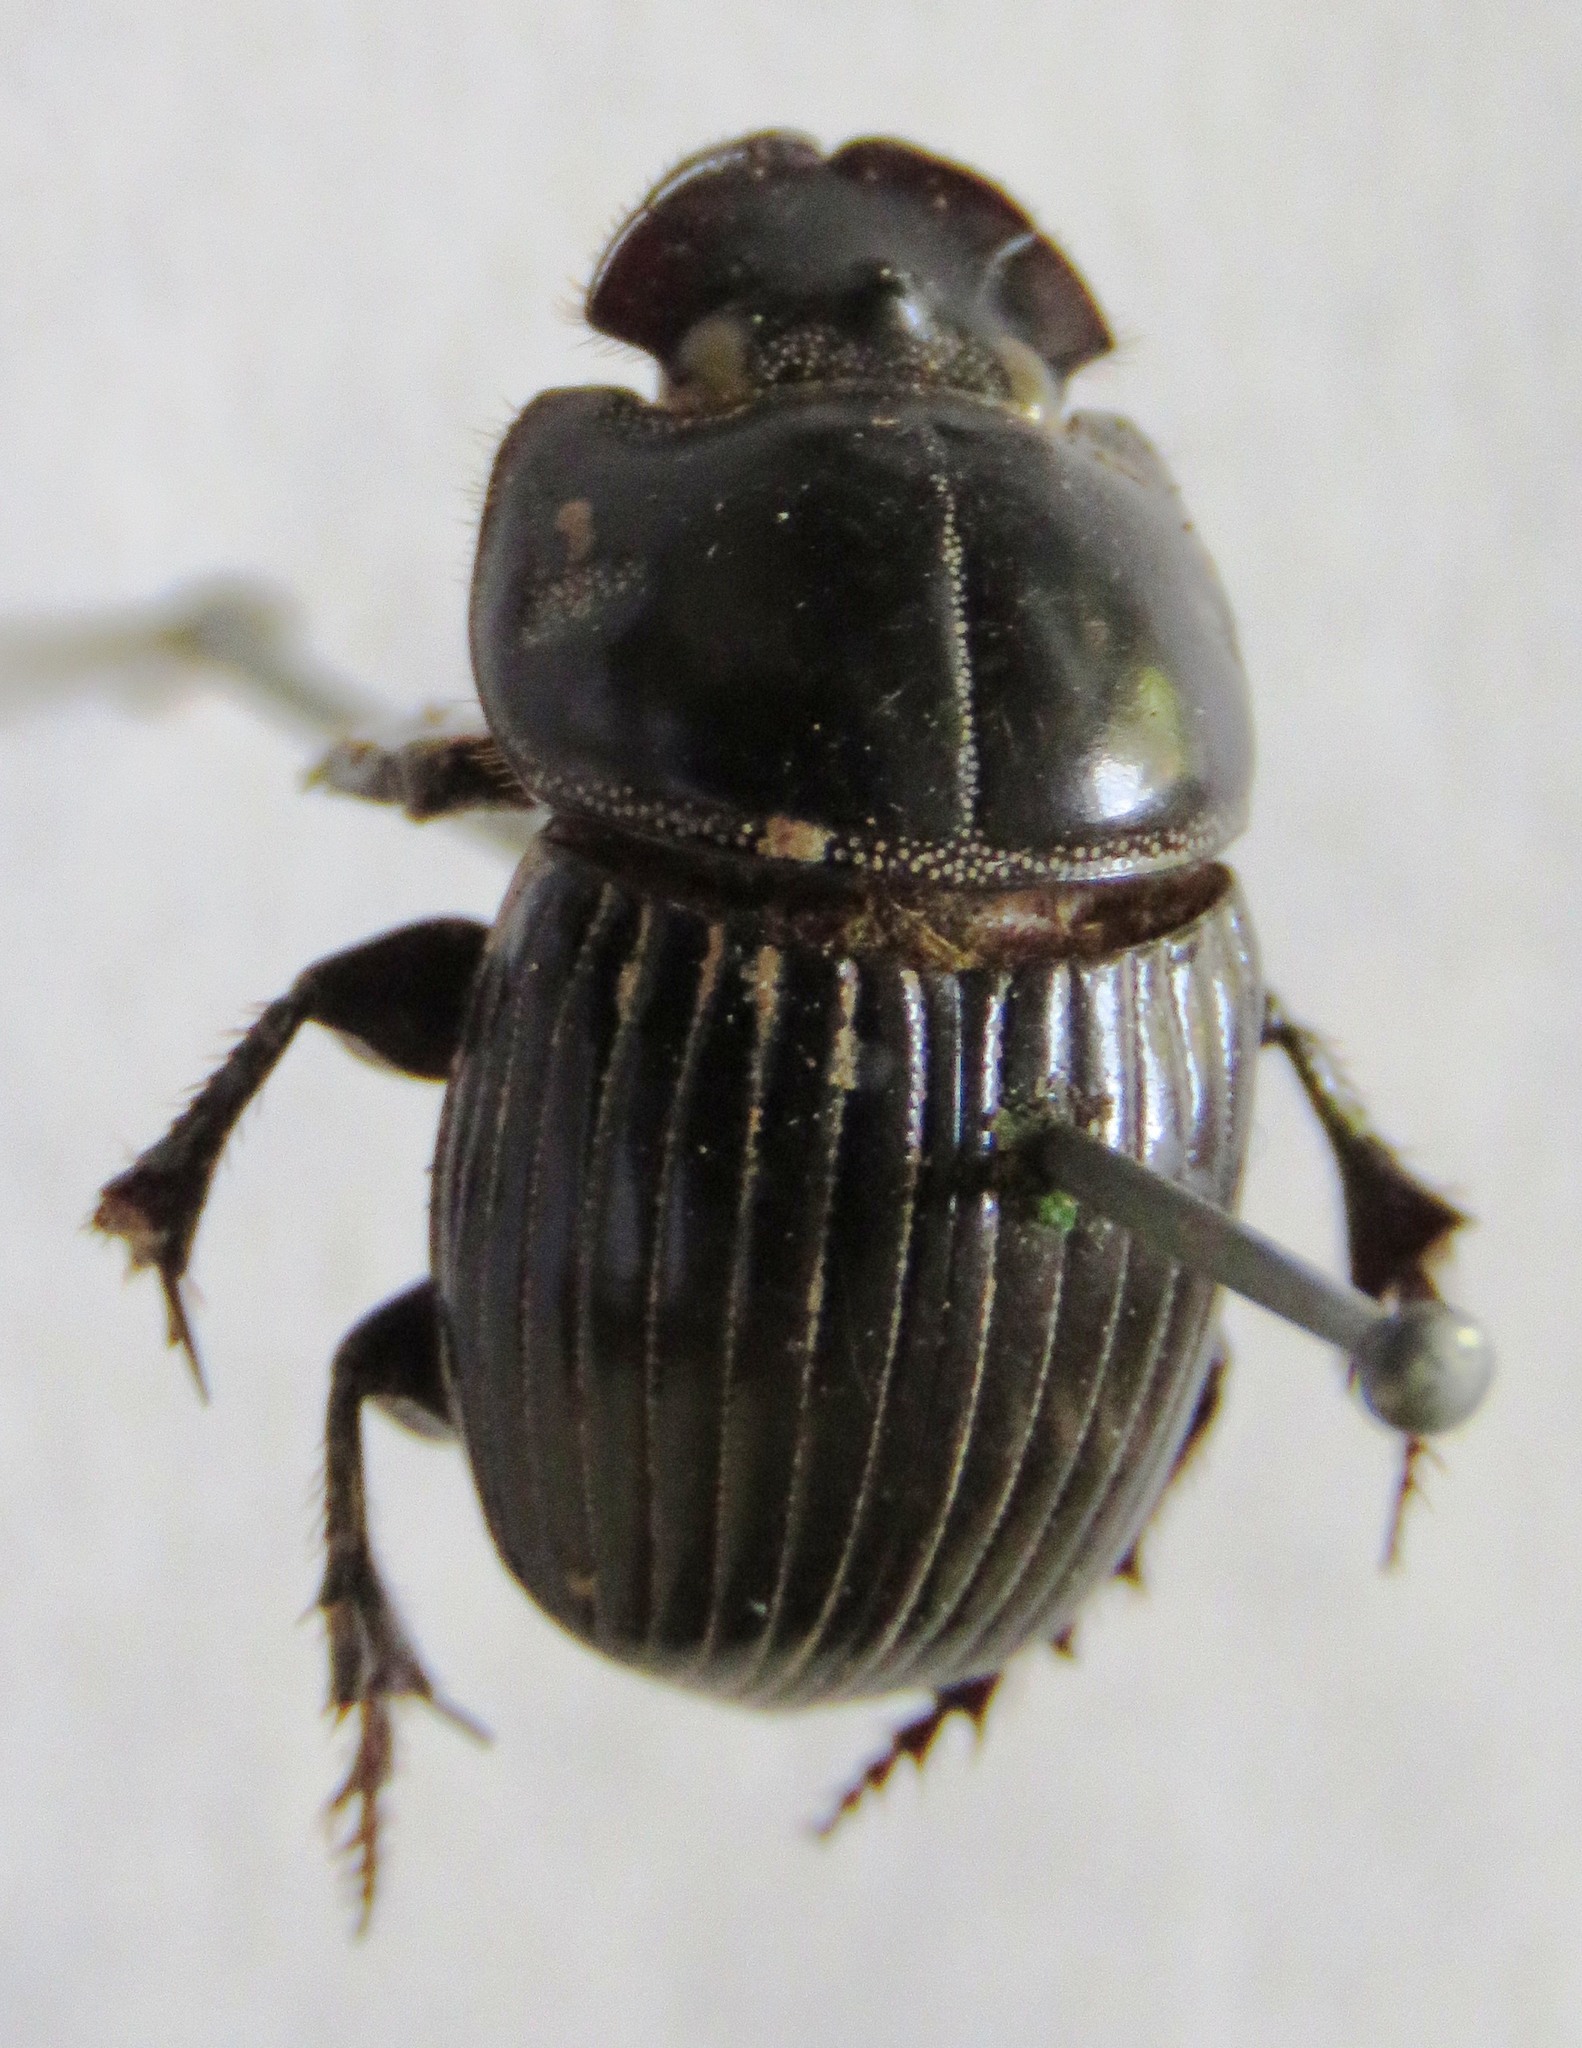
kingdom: Animalia
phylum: Arthropoda
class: Insecta
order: Coleoptera
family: Scarabaeidae
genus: Copris
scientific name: Copris incertus
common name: Uncertain dung beetle
